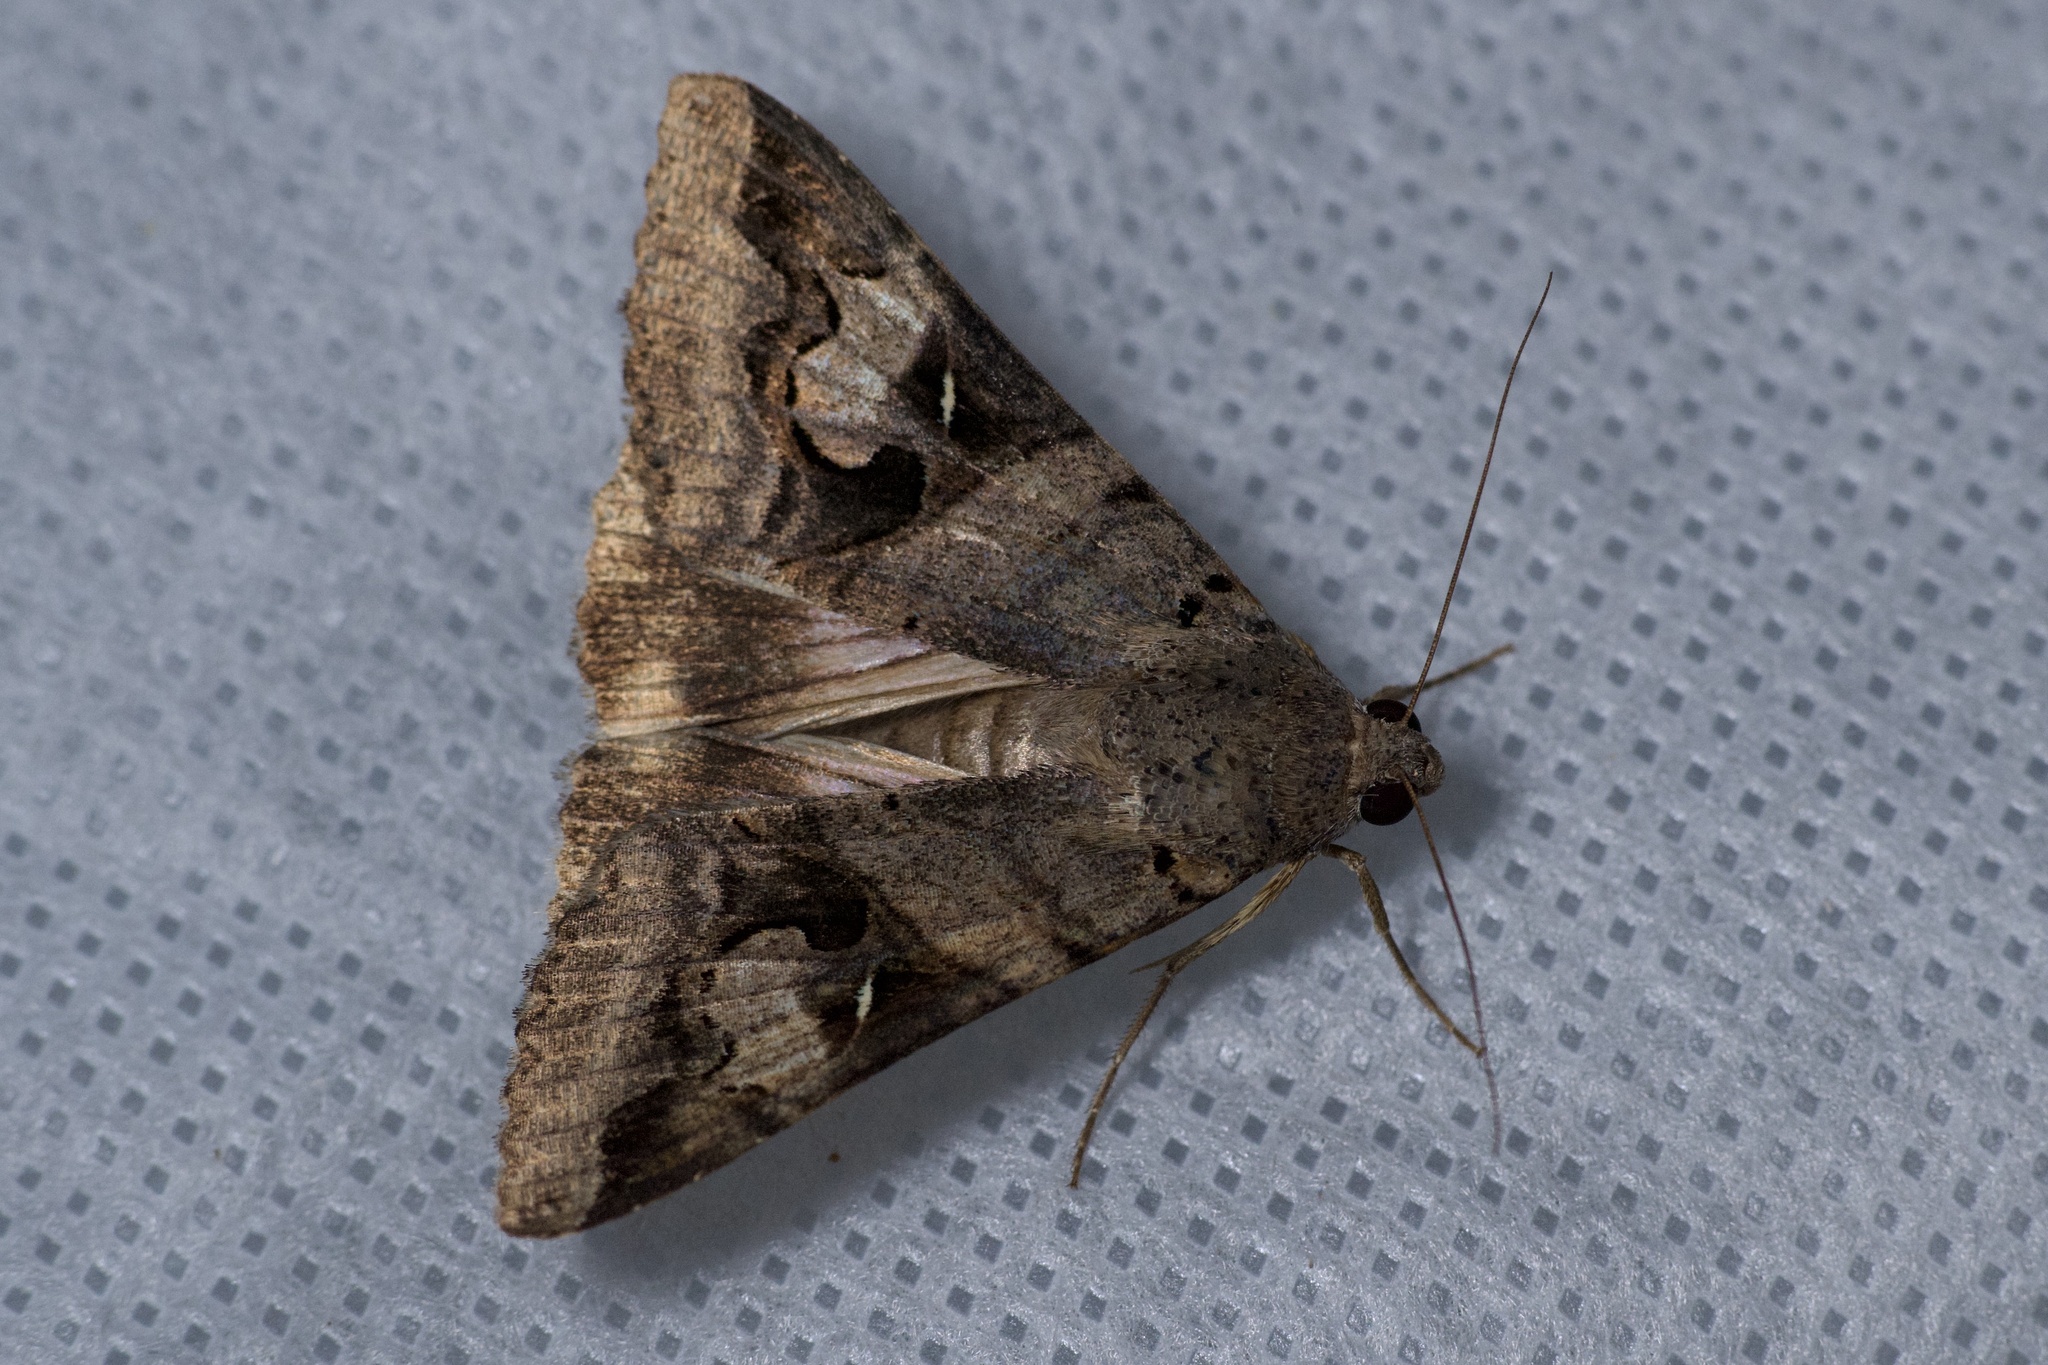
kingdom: Animalia
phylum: Arthropoda
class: Insecta
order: Lepidoptera
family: Erebidae
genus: Melipotis
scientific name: Melipotis indomita
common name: Moth
